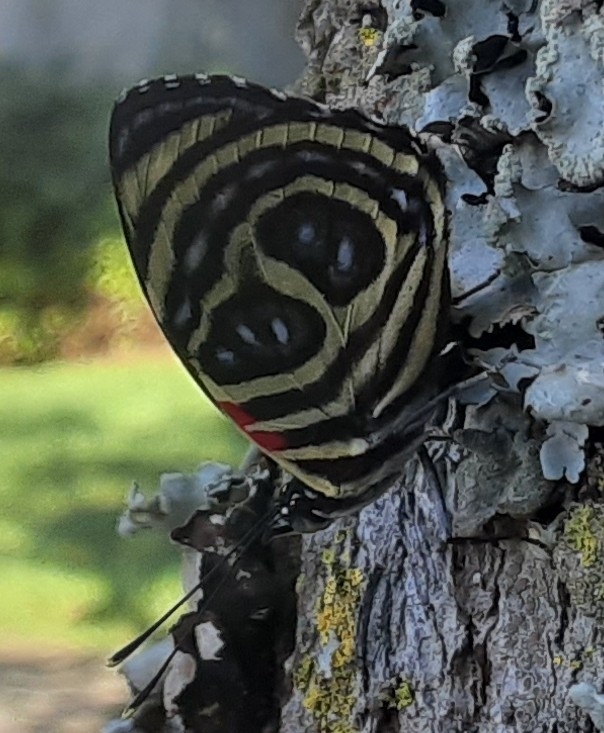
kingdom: Animalia
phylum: Arthropoda
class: Insecta
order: Lepidoptera
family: Nymphalidae
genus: Catagramma
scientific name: Catagramma pygas
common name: Godart's numberwing
